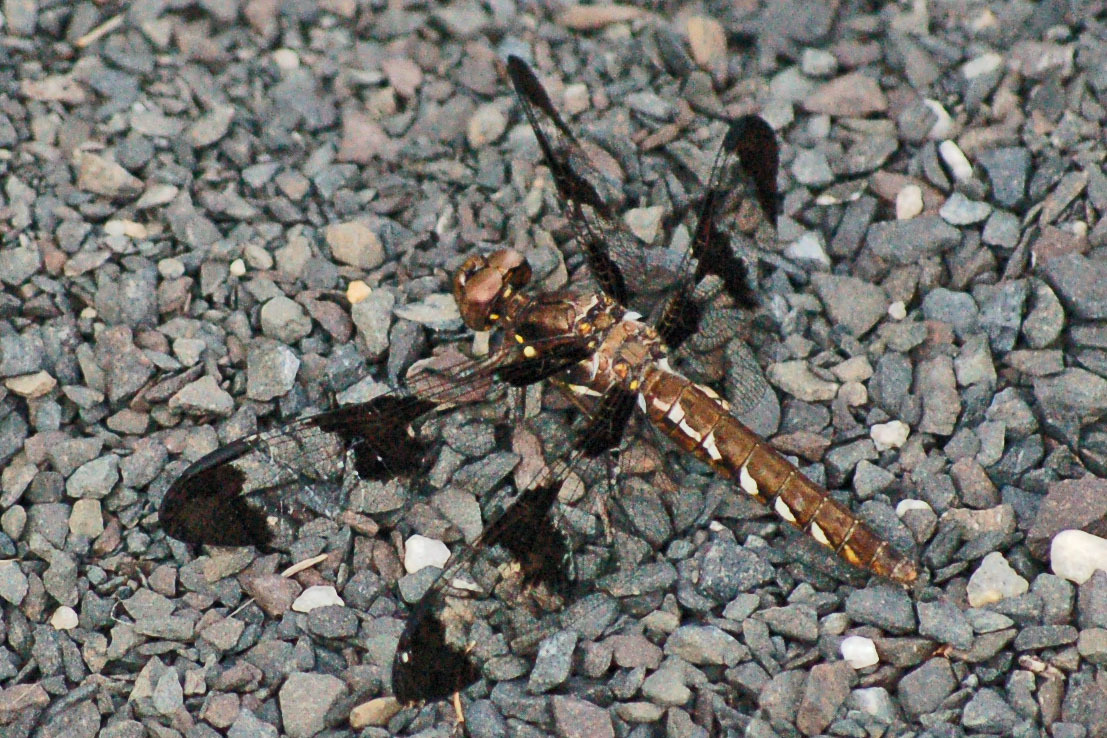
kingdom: Animalia
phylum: Arthropoda
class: Insecta
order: Odonata
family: Libellulidae
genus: Plathemis
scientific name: Plathemis lydia
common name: Common whitetail
